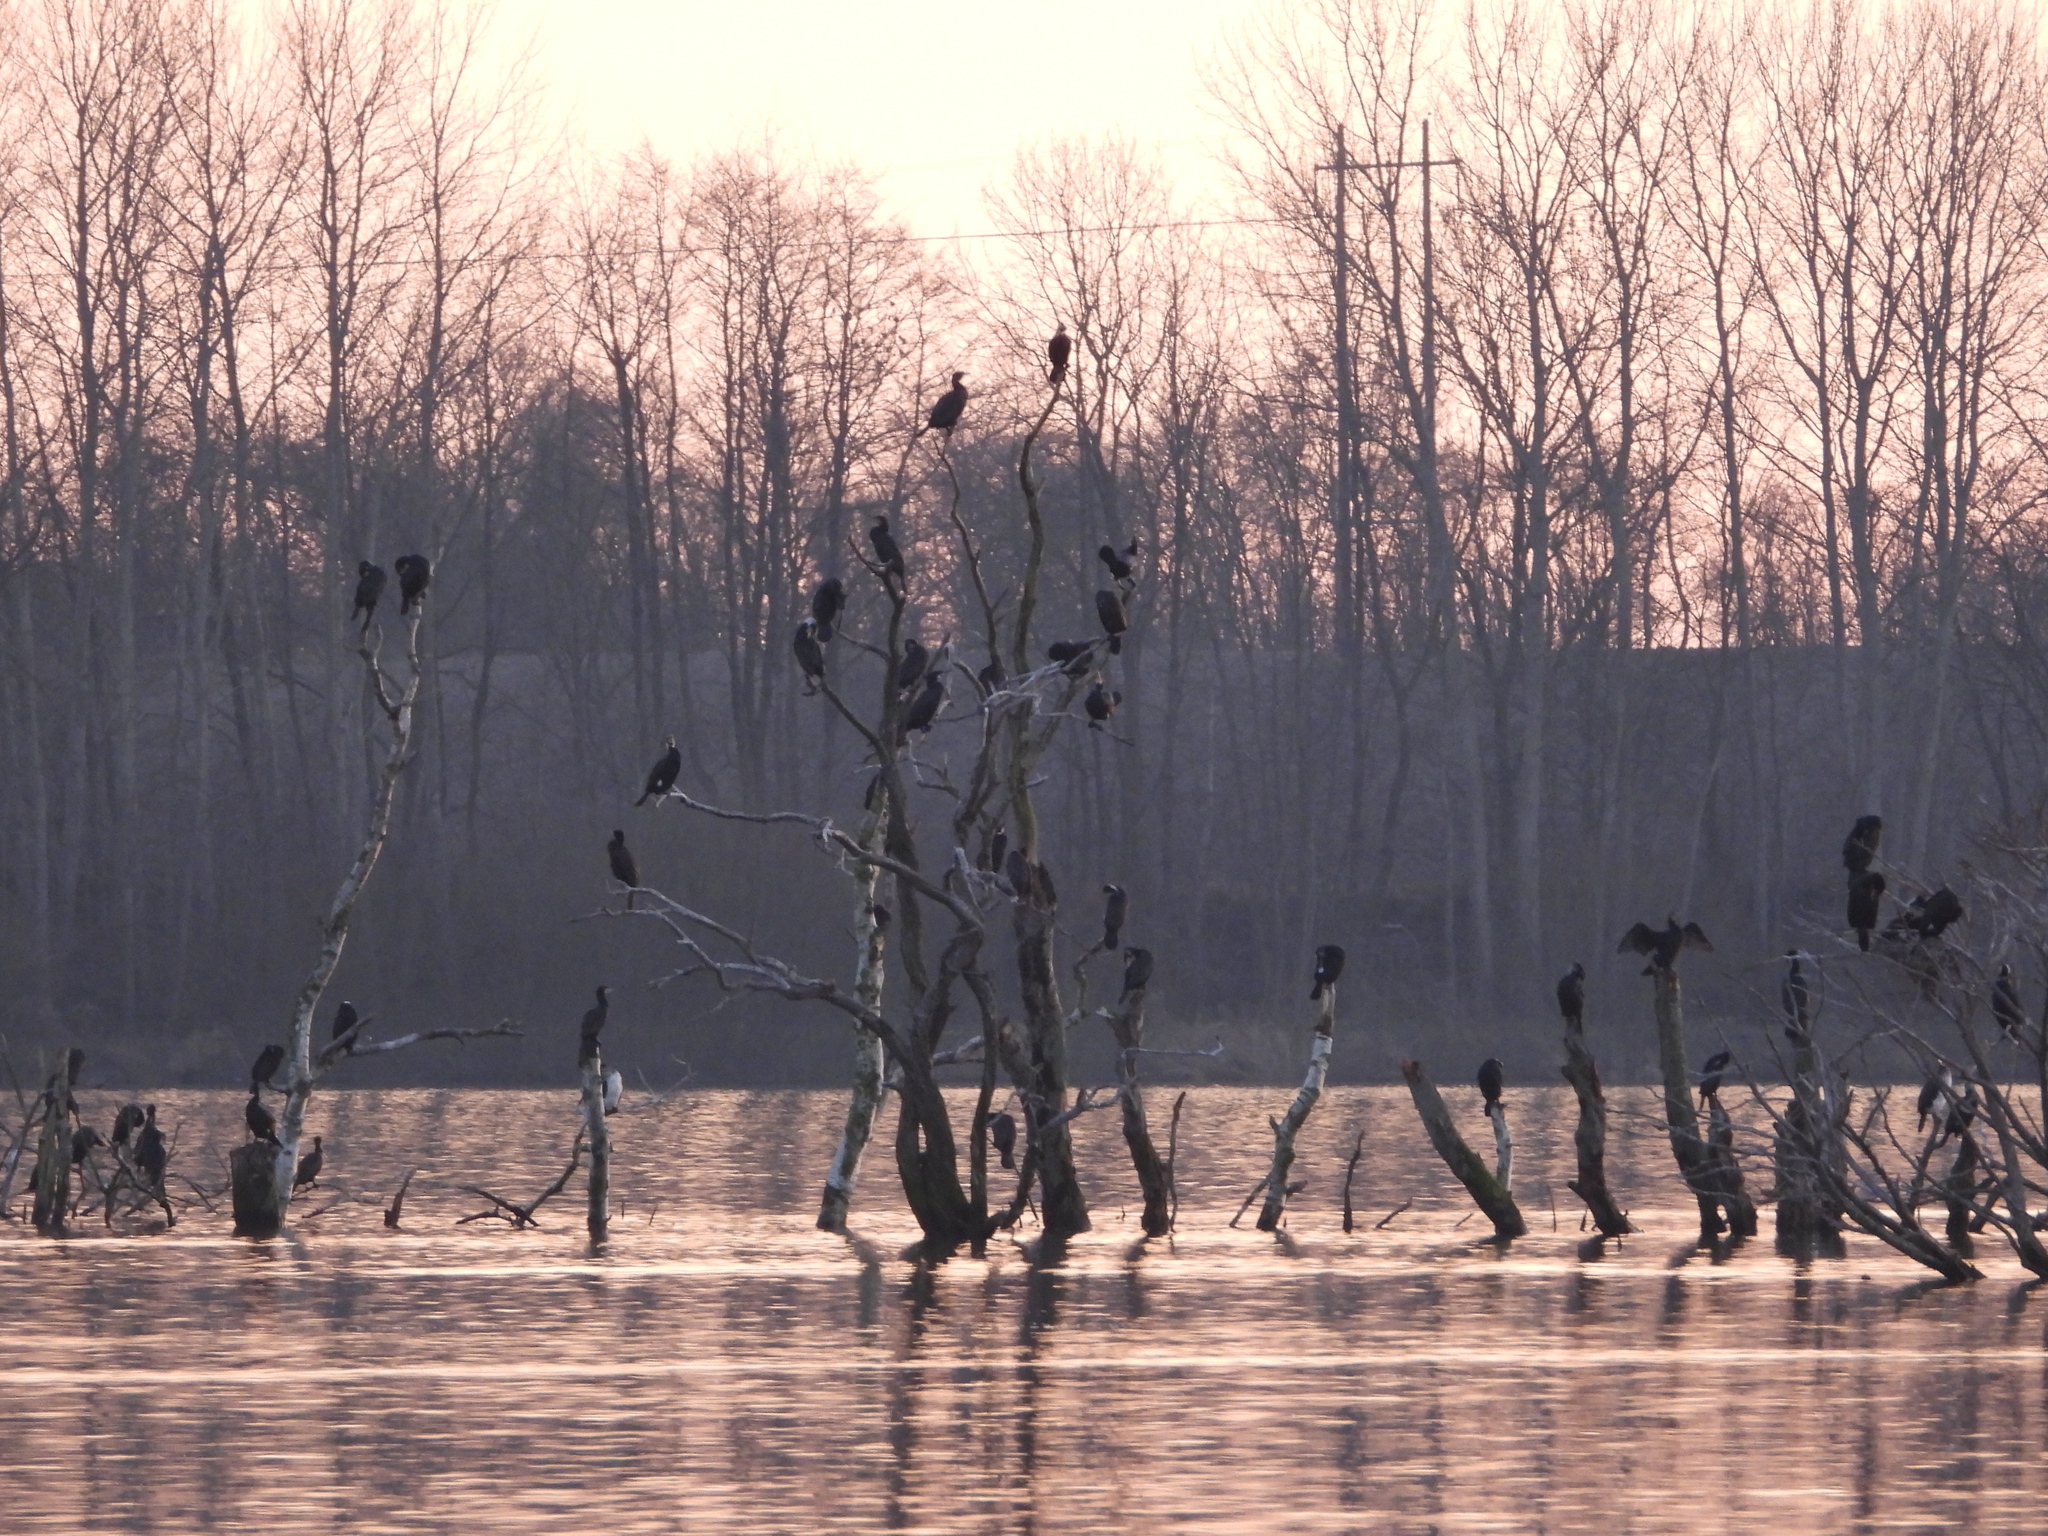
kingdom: Animalia
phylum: Chordata
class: Aves
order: Suliformes
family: Phalacrocoracidae
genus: Phalacrocorax
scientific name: Phalacrocorax carbo
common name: Great cormorant
